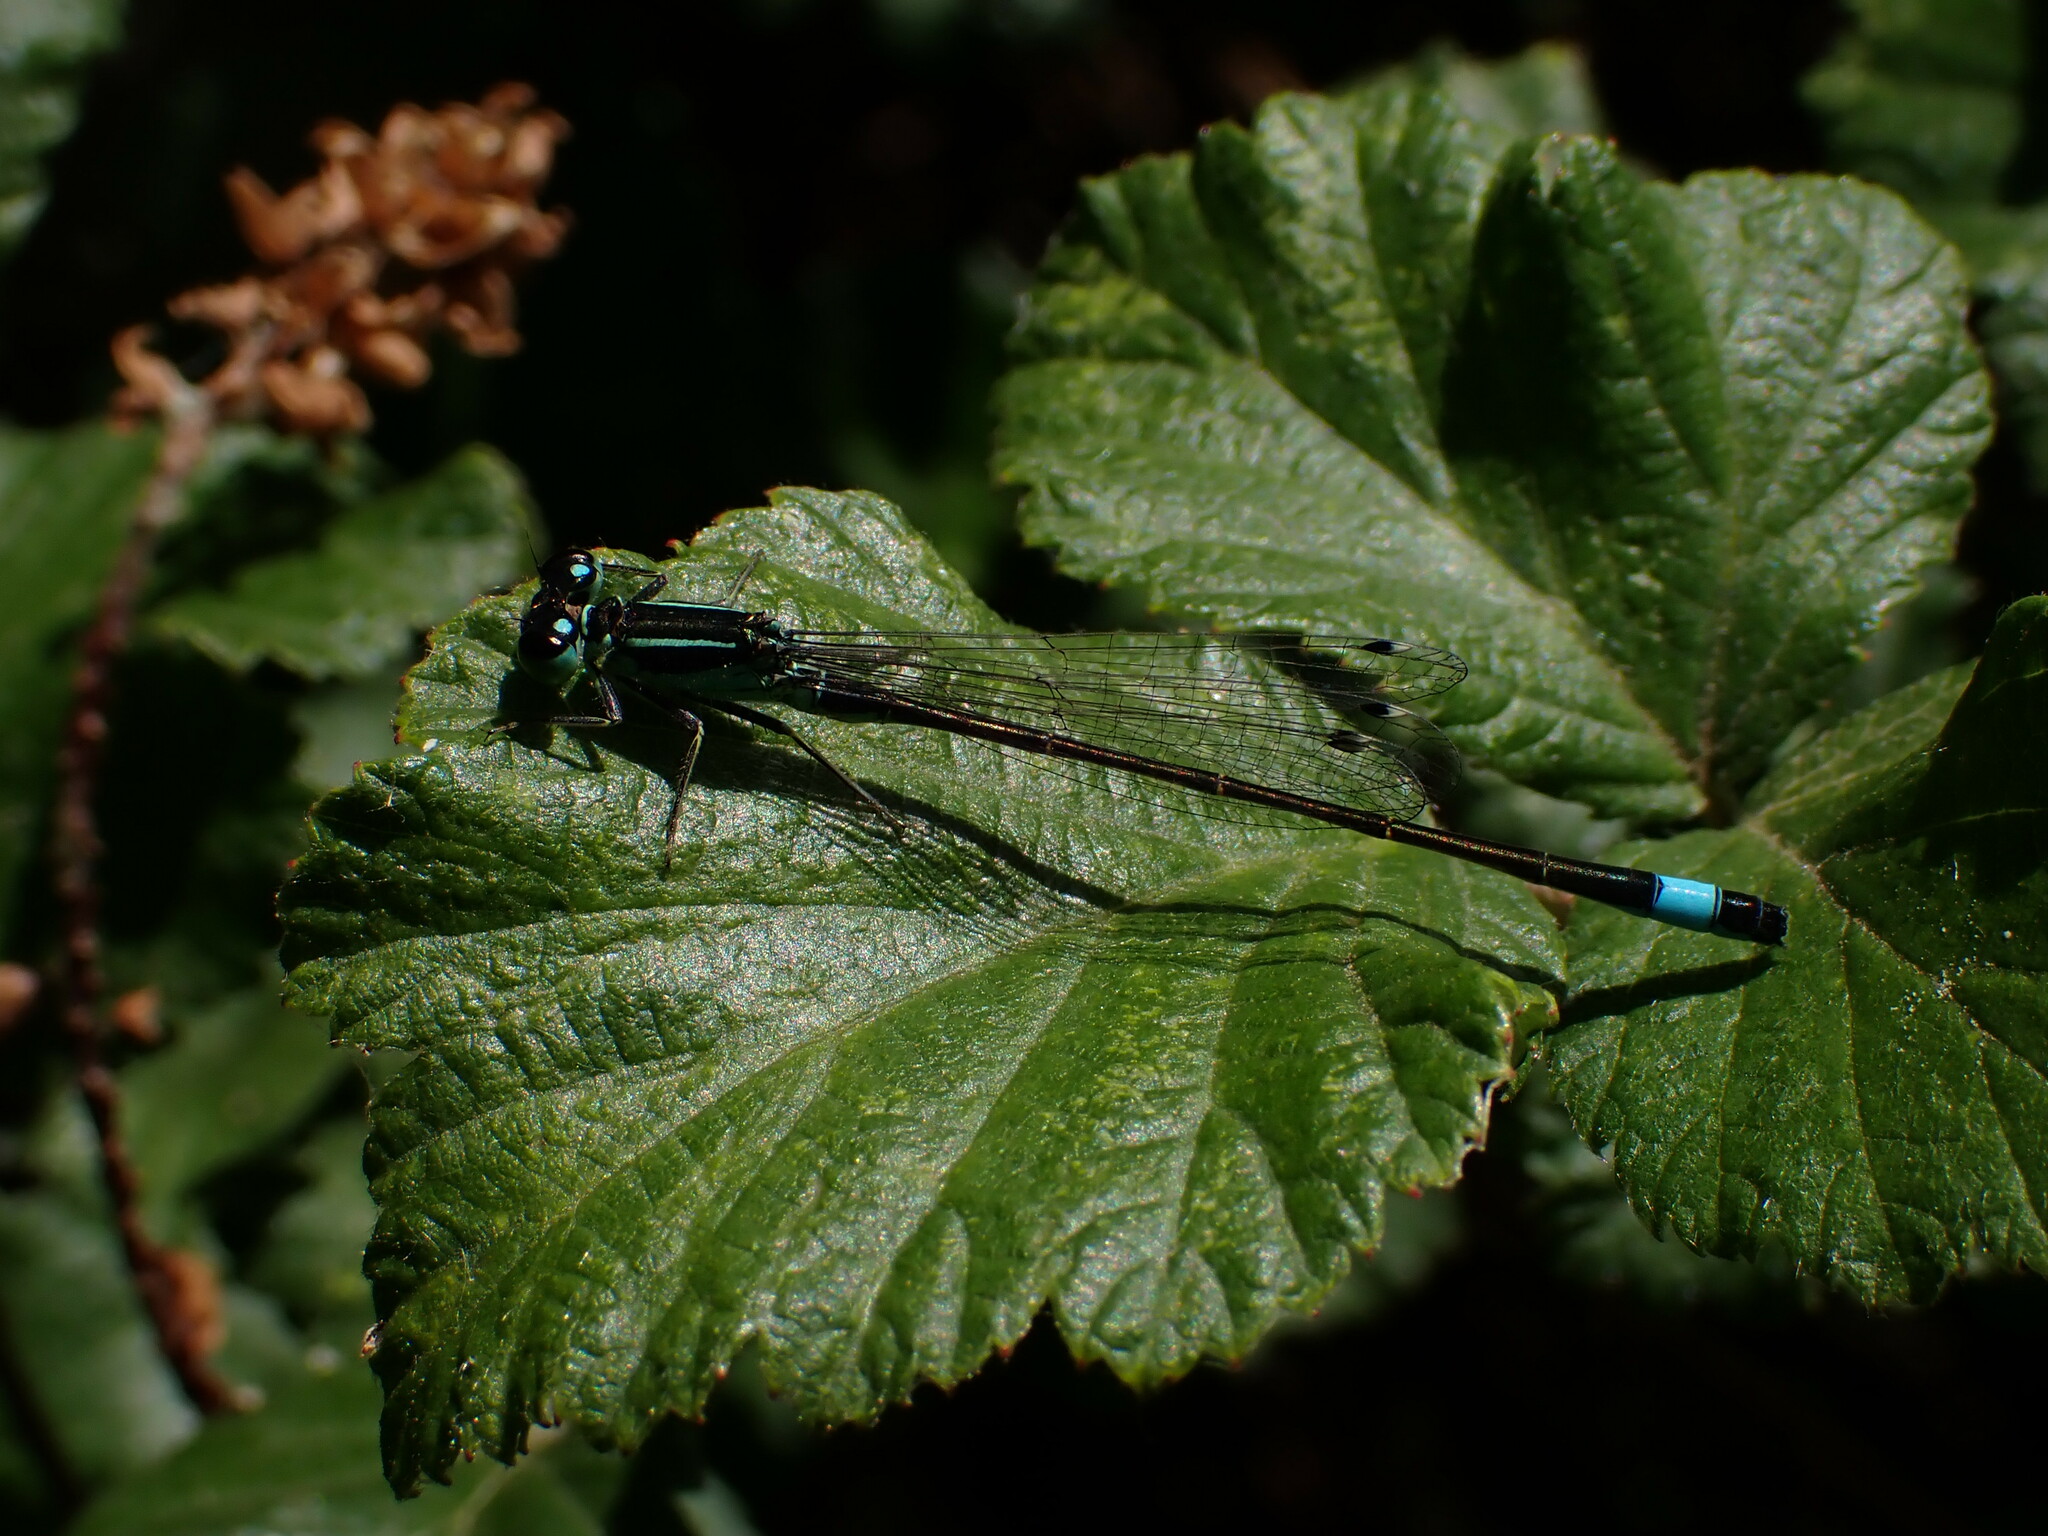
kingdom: Animalia
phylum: Arthropoda
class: Insecta
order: Odonata
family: Coenagrionidae
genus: Ischnura
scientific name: Ischnura elegans
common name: Blue-tailed damselfly
